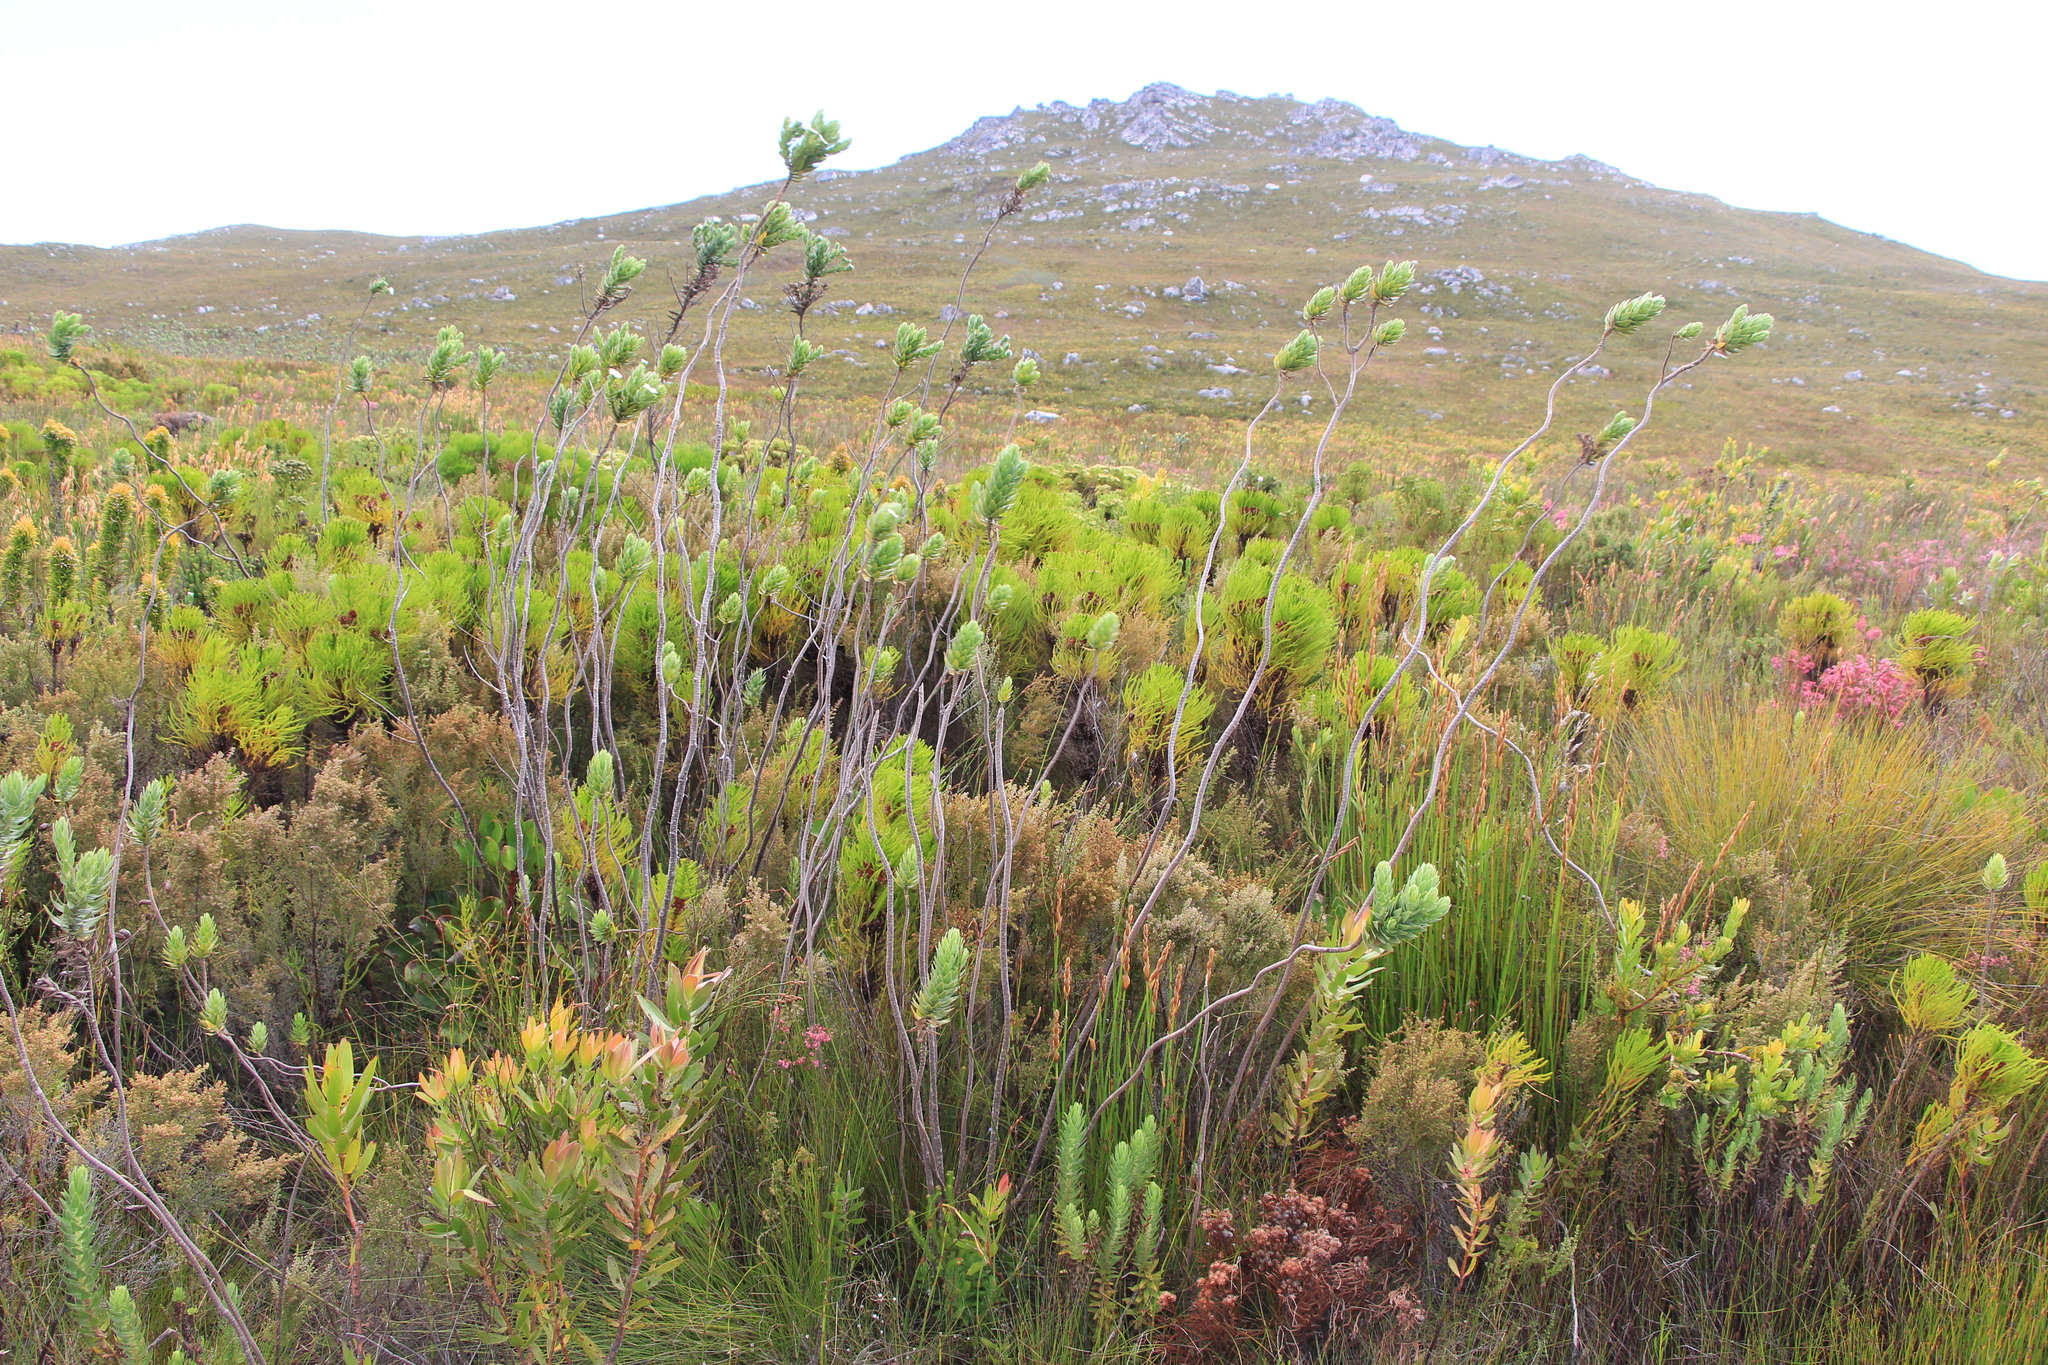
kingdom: Plantae
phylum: Tracheophyta
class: Magnoliopsida
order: Asterales
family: Asteraceae
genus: Osmitopsis
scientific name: Osmitopsis asteriscoides
